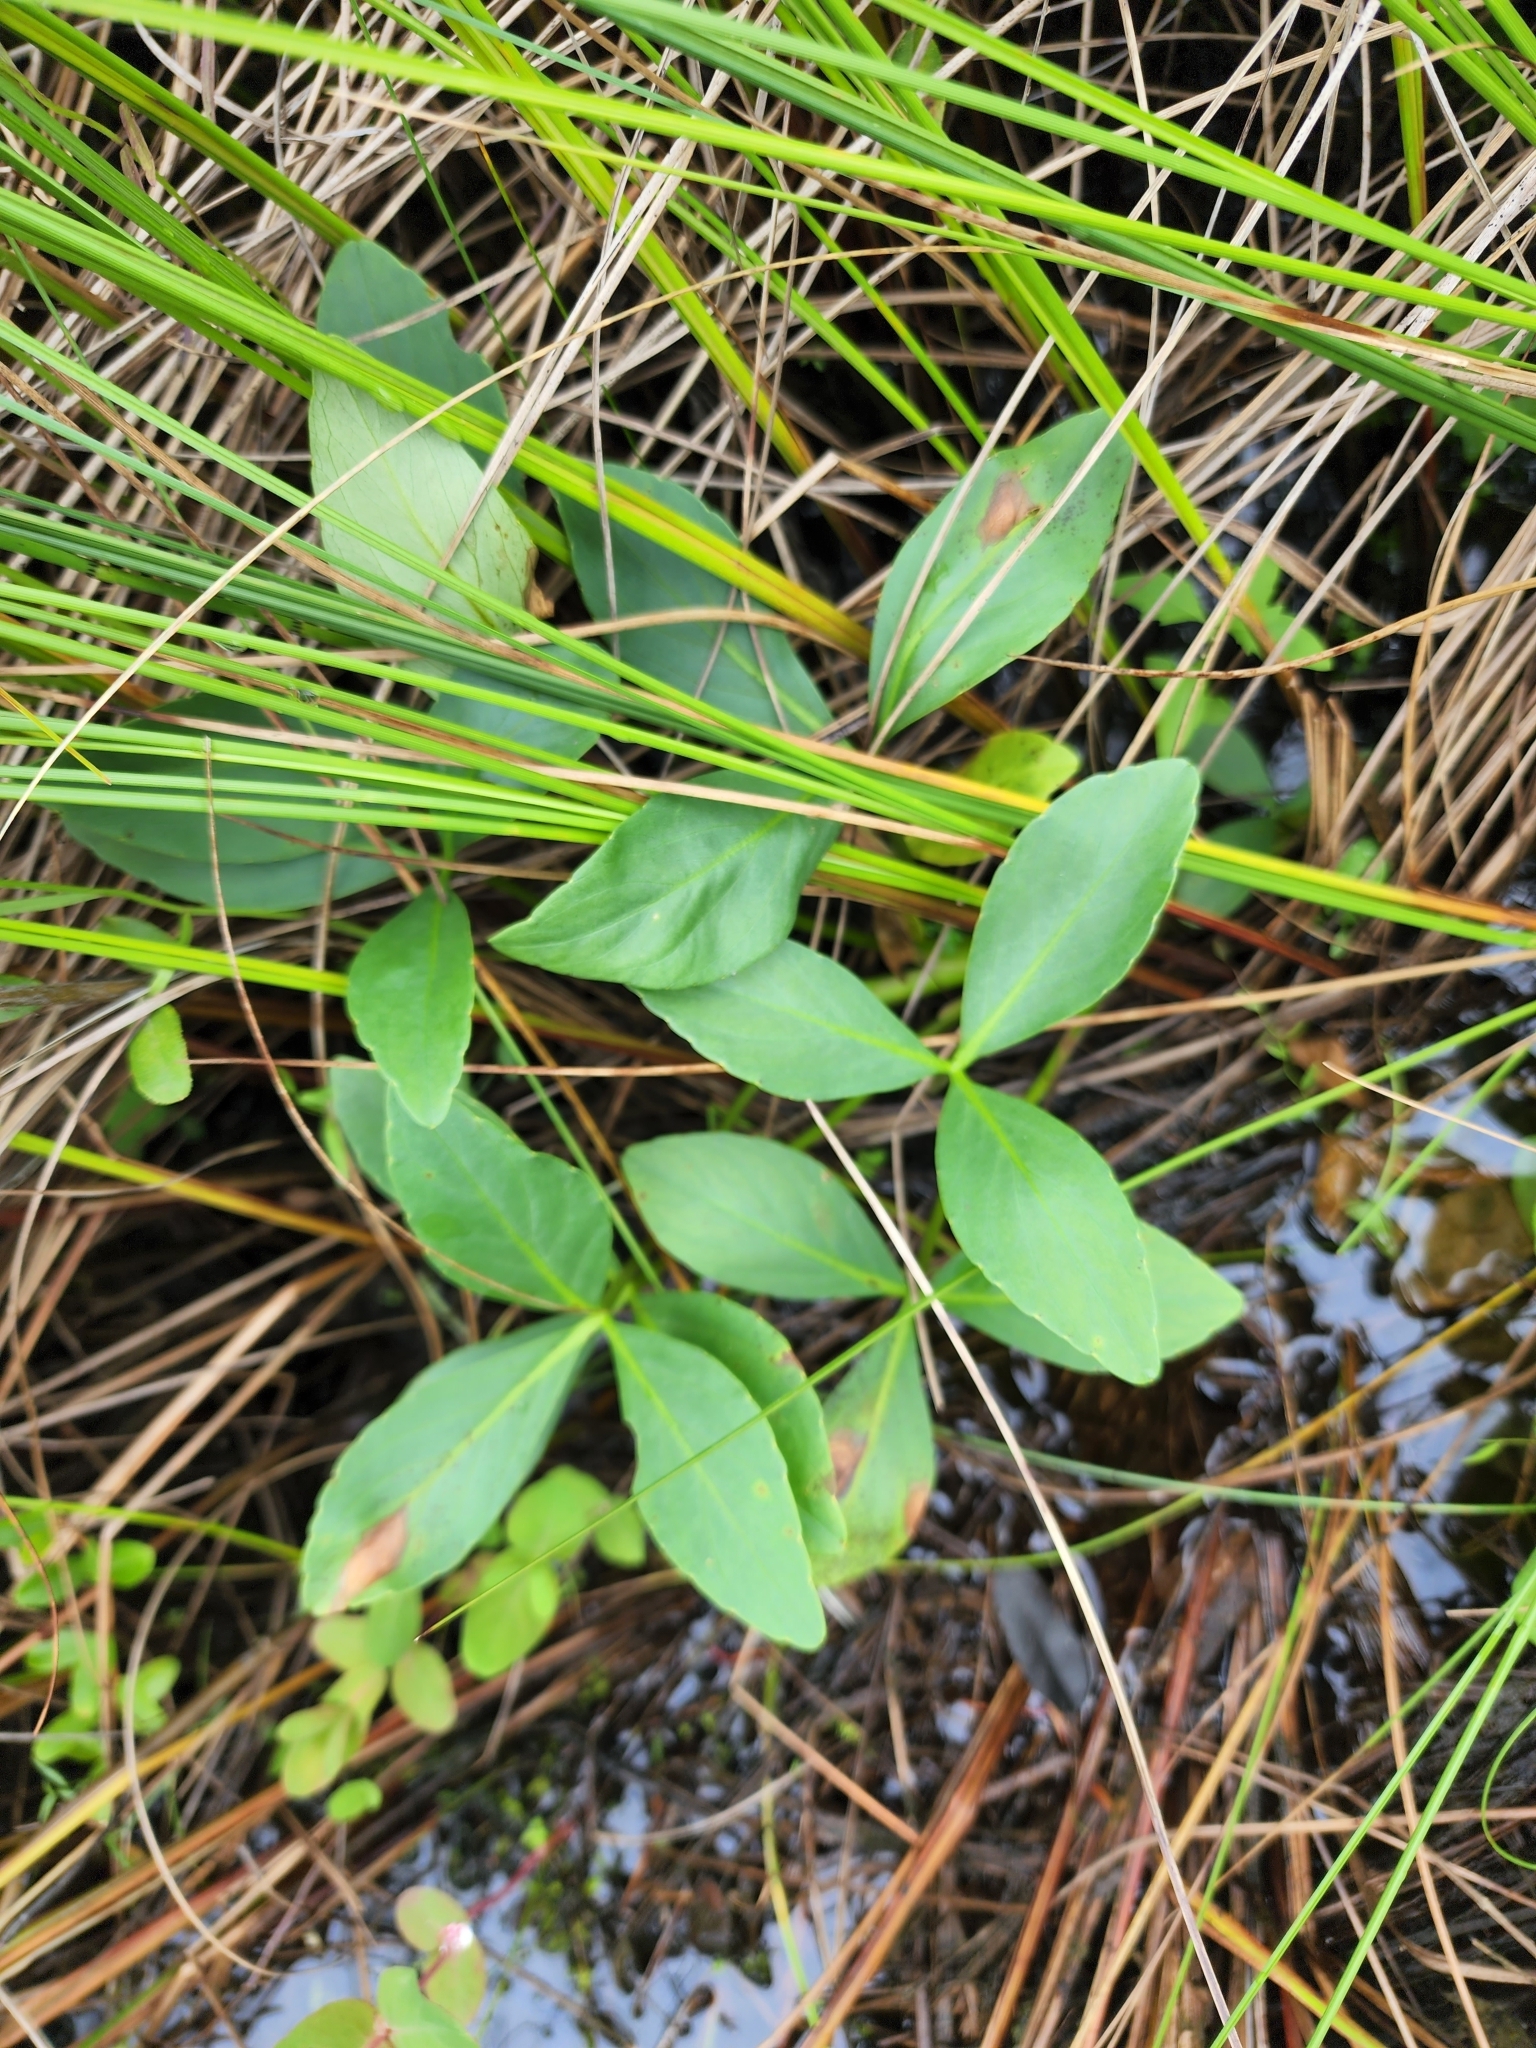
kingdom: Plantae
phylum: Tracheophyta
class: Magnoliopsida
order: Asterales
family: Menyanthaceae
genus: Menyanthes
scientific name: Menyanthes trifoliata
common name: Bogbean
